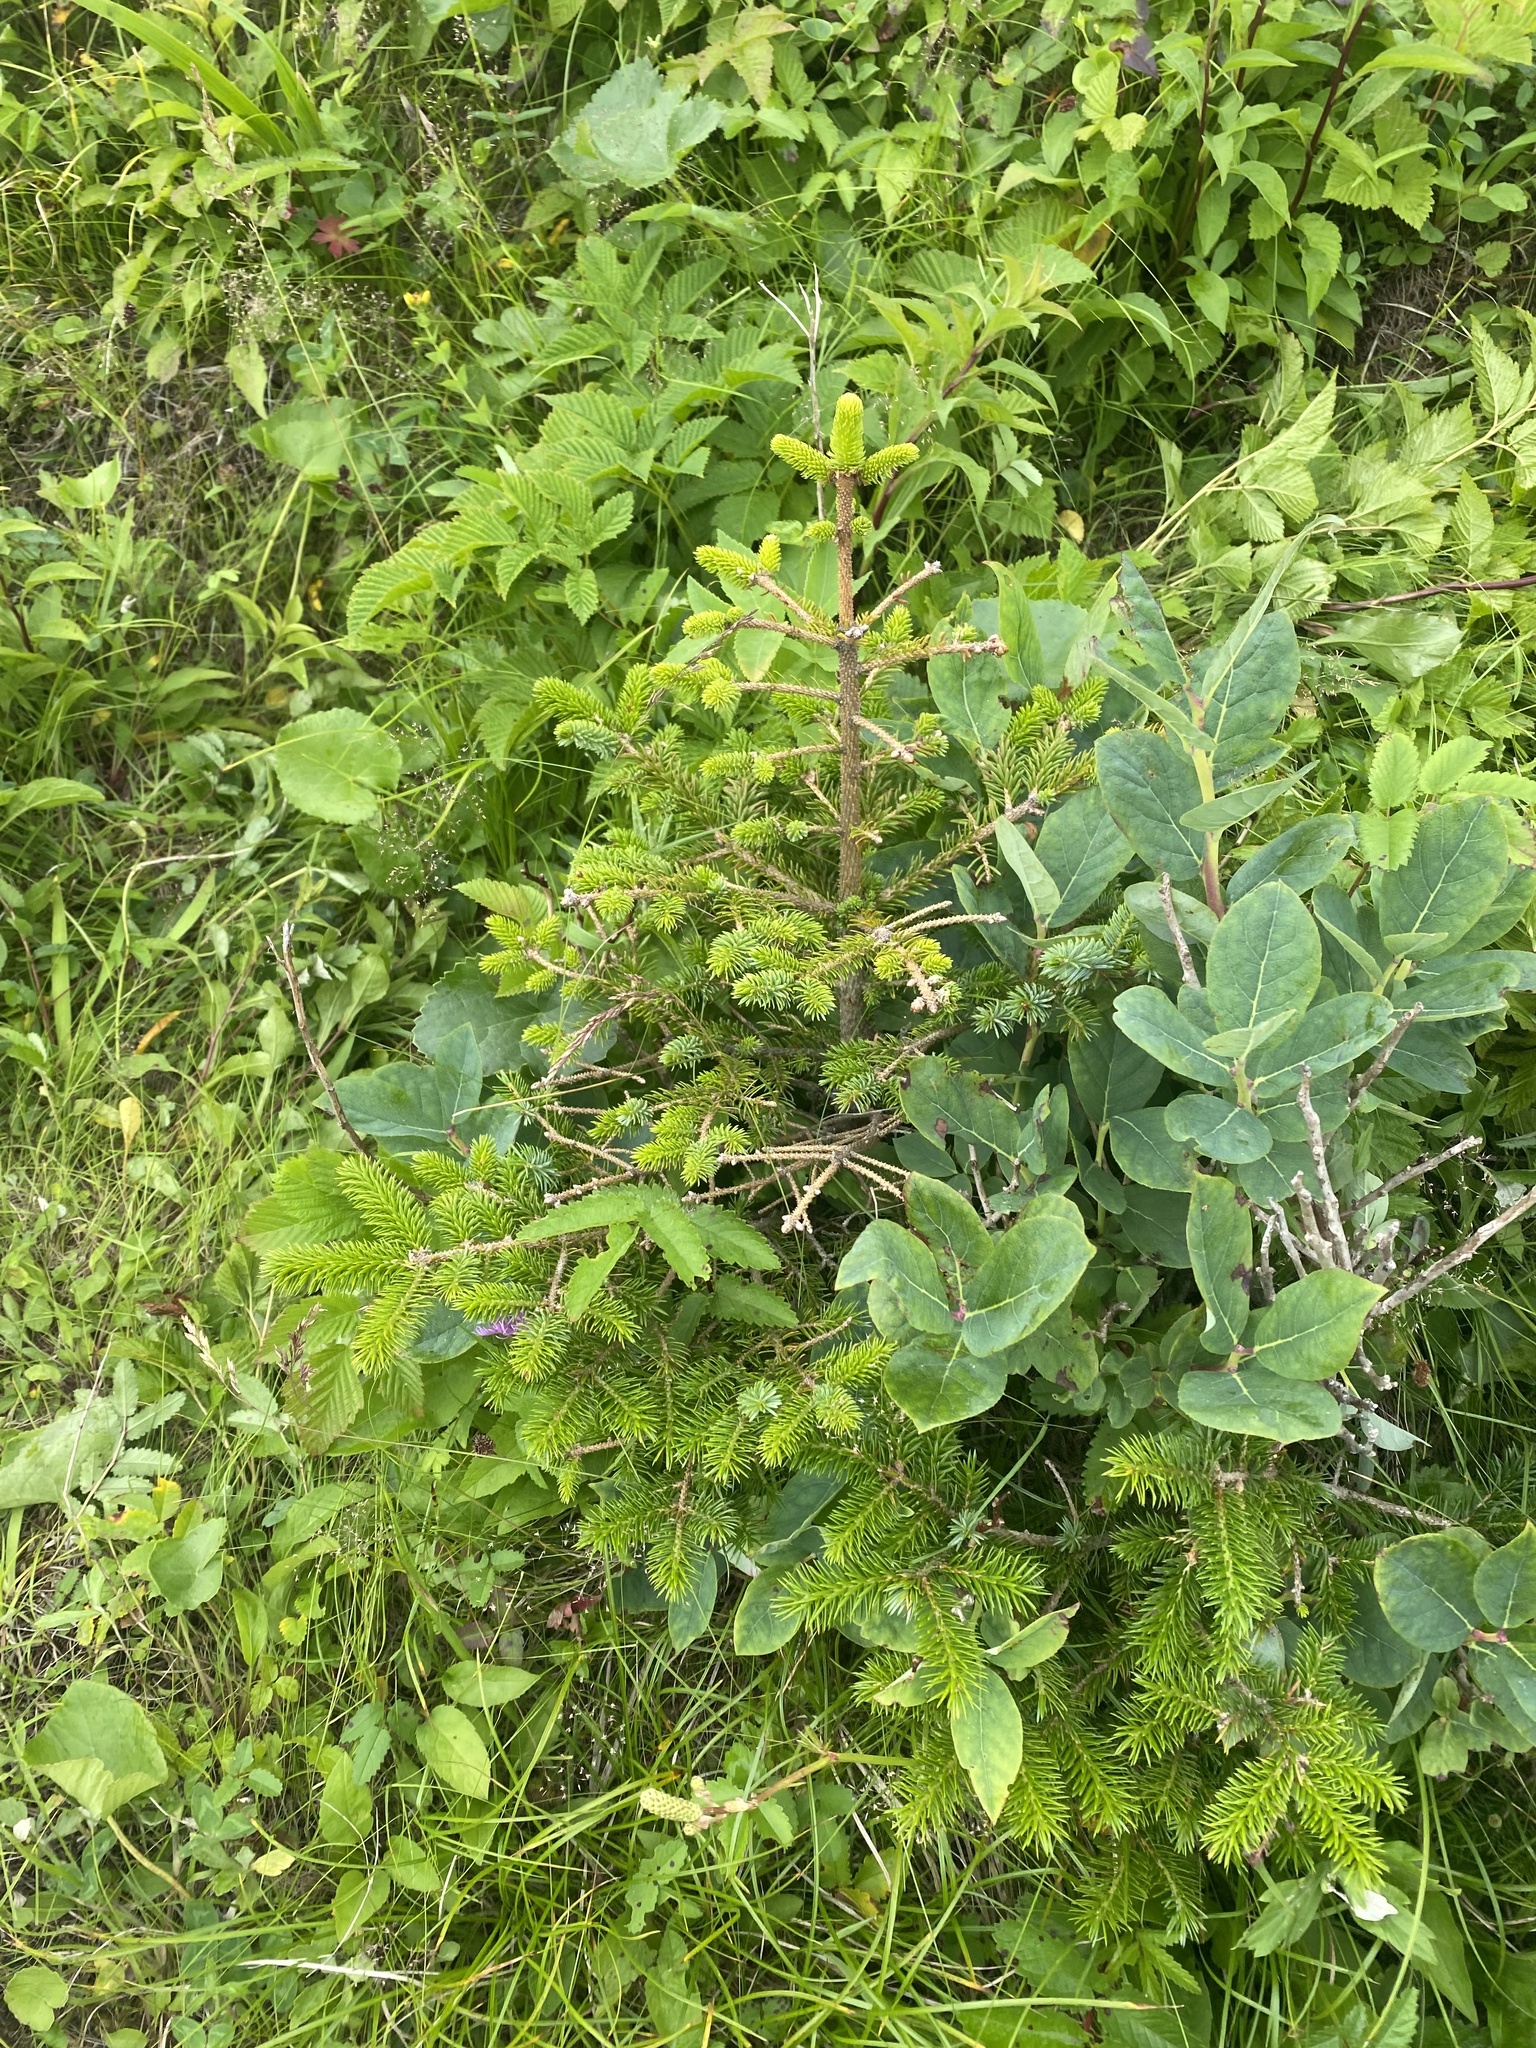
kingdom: Plantae
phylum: Tracheophyta
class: Pinopsida
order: Pinales
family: Pinaceae
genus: Picea
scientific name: Picea jezoensis
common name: Yeddo spruce
